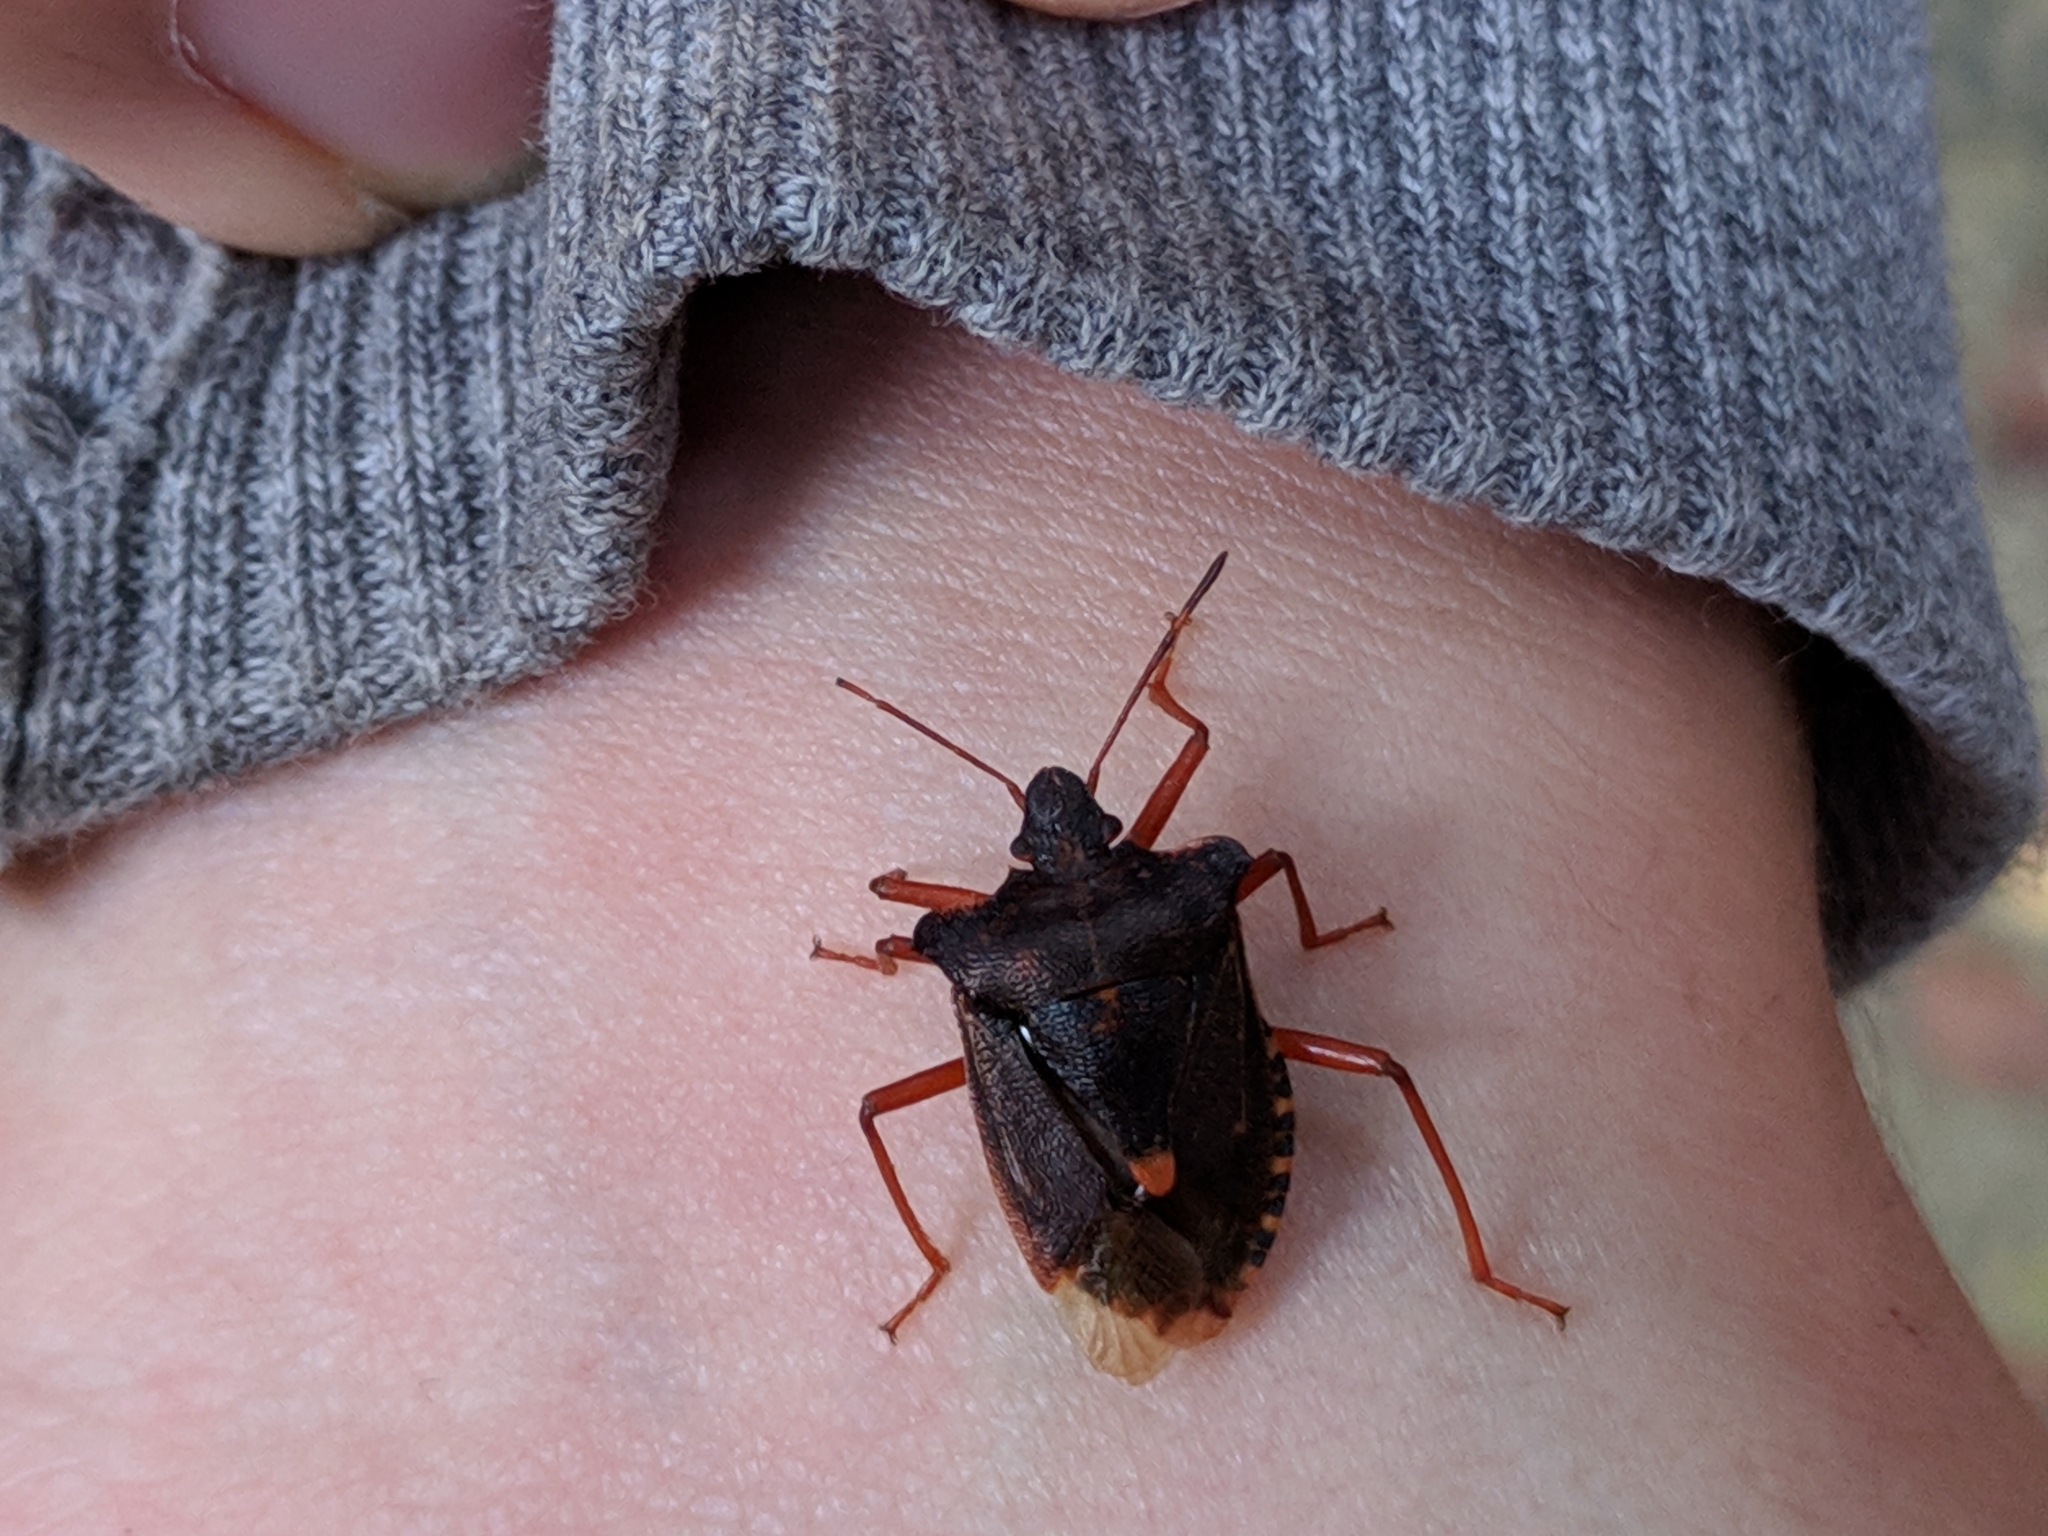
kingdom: Animalia
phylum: Arthropoda
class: Insecta
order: Hemiptera
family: Pentatomidae
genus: Pentatoma
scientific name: Pentatoma rufipes
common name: Forest bug
